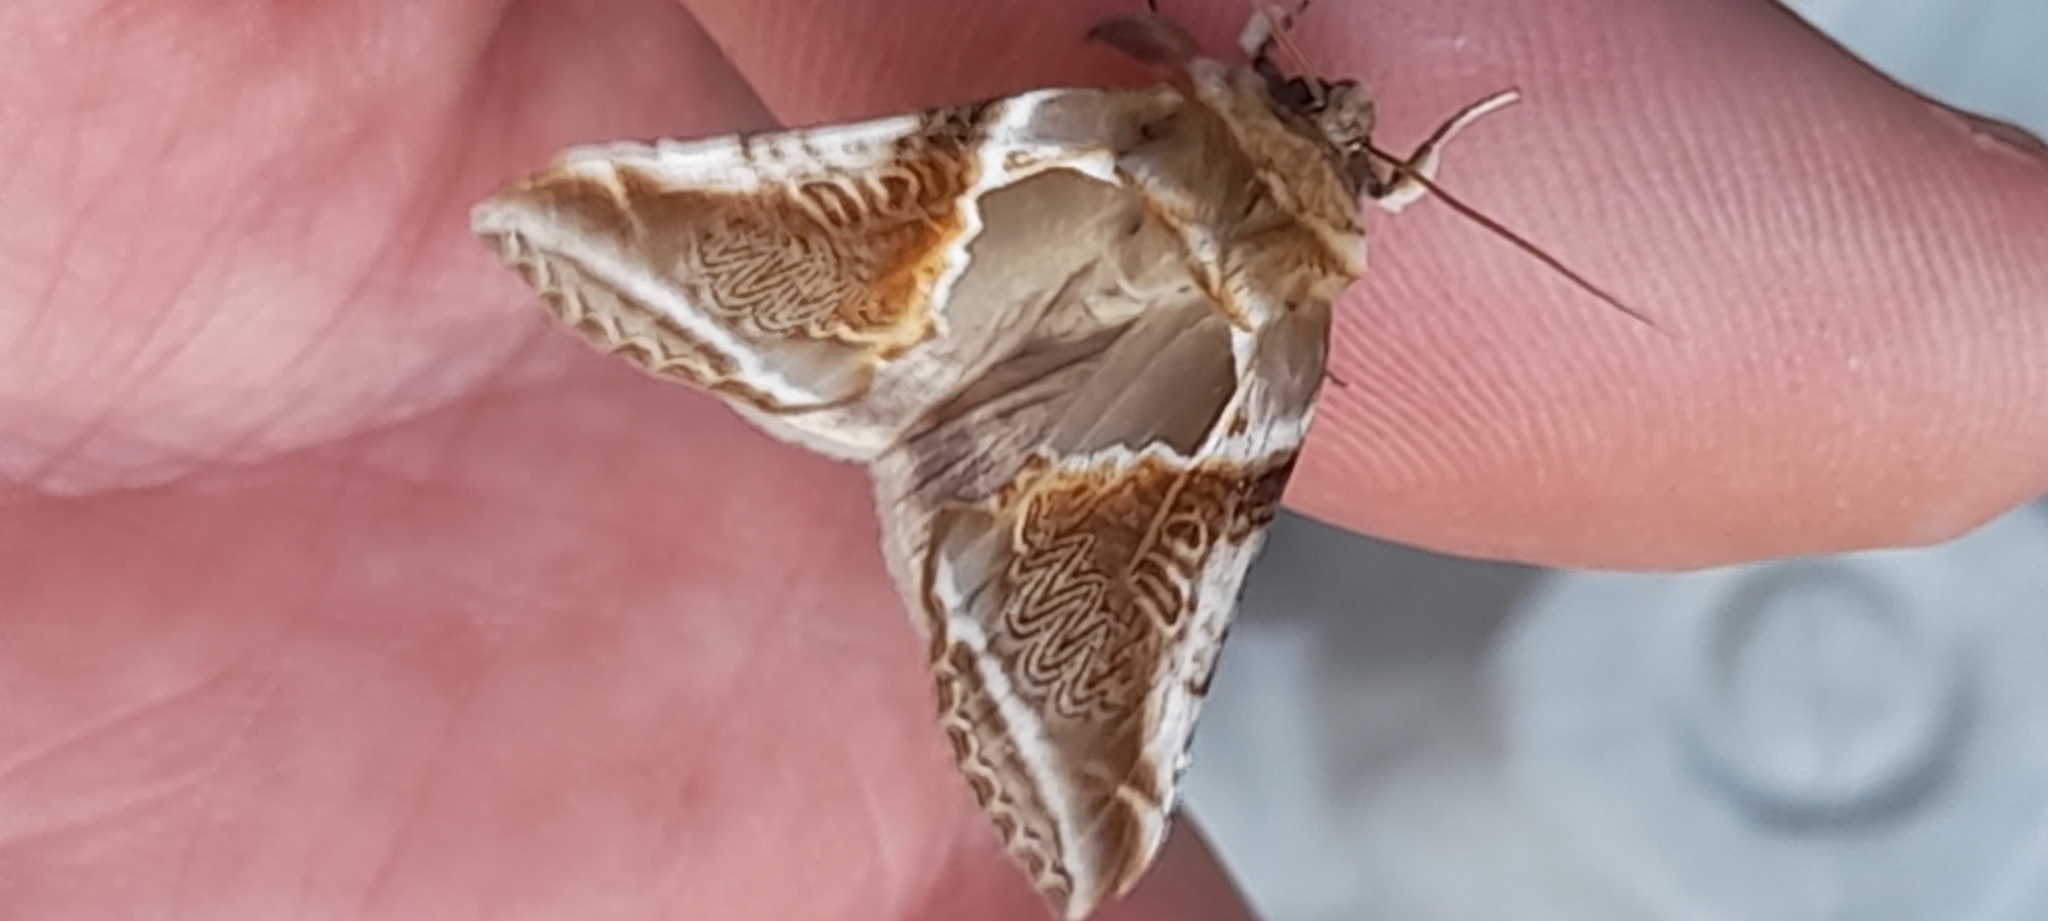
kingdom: Animalia
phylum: Arthropoda
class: Insecta
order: Lepidoptera
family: Drepanidae
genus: Habrosyne
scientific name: Habrosyne pyritoides
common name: Buff arches
